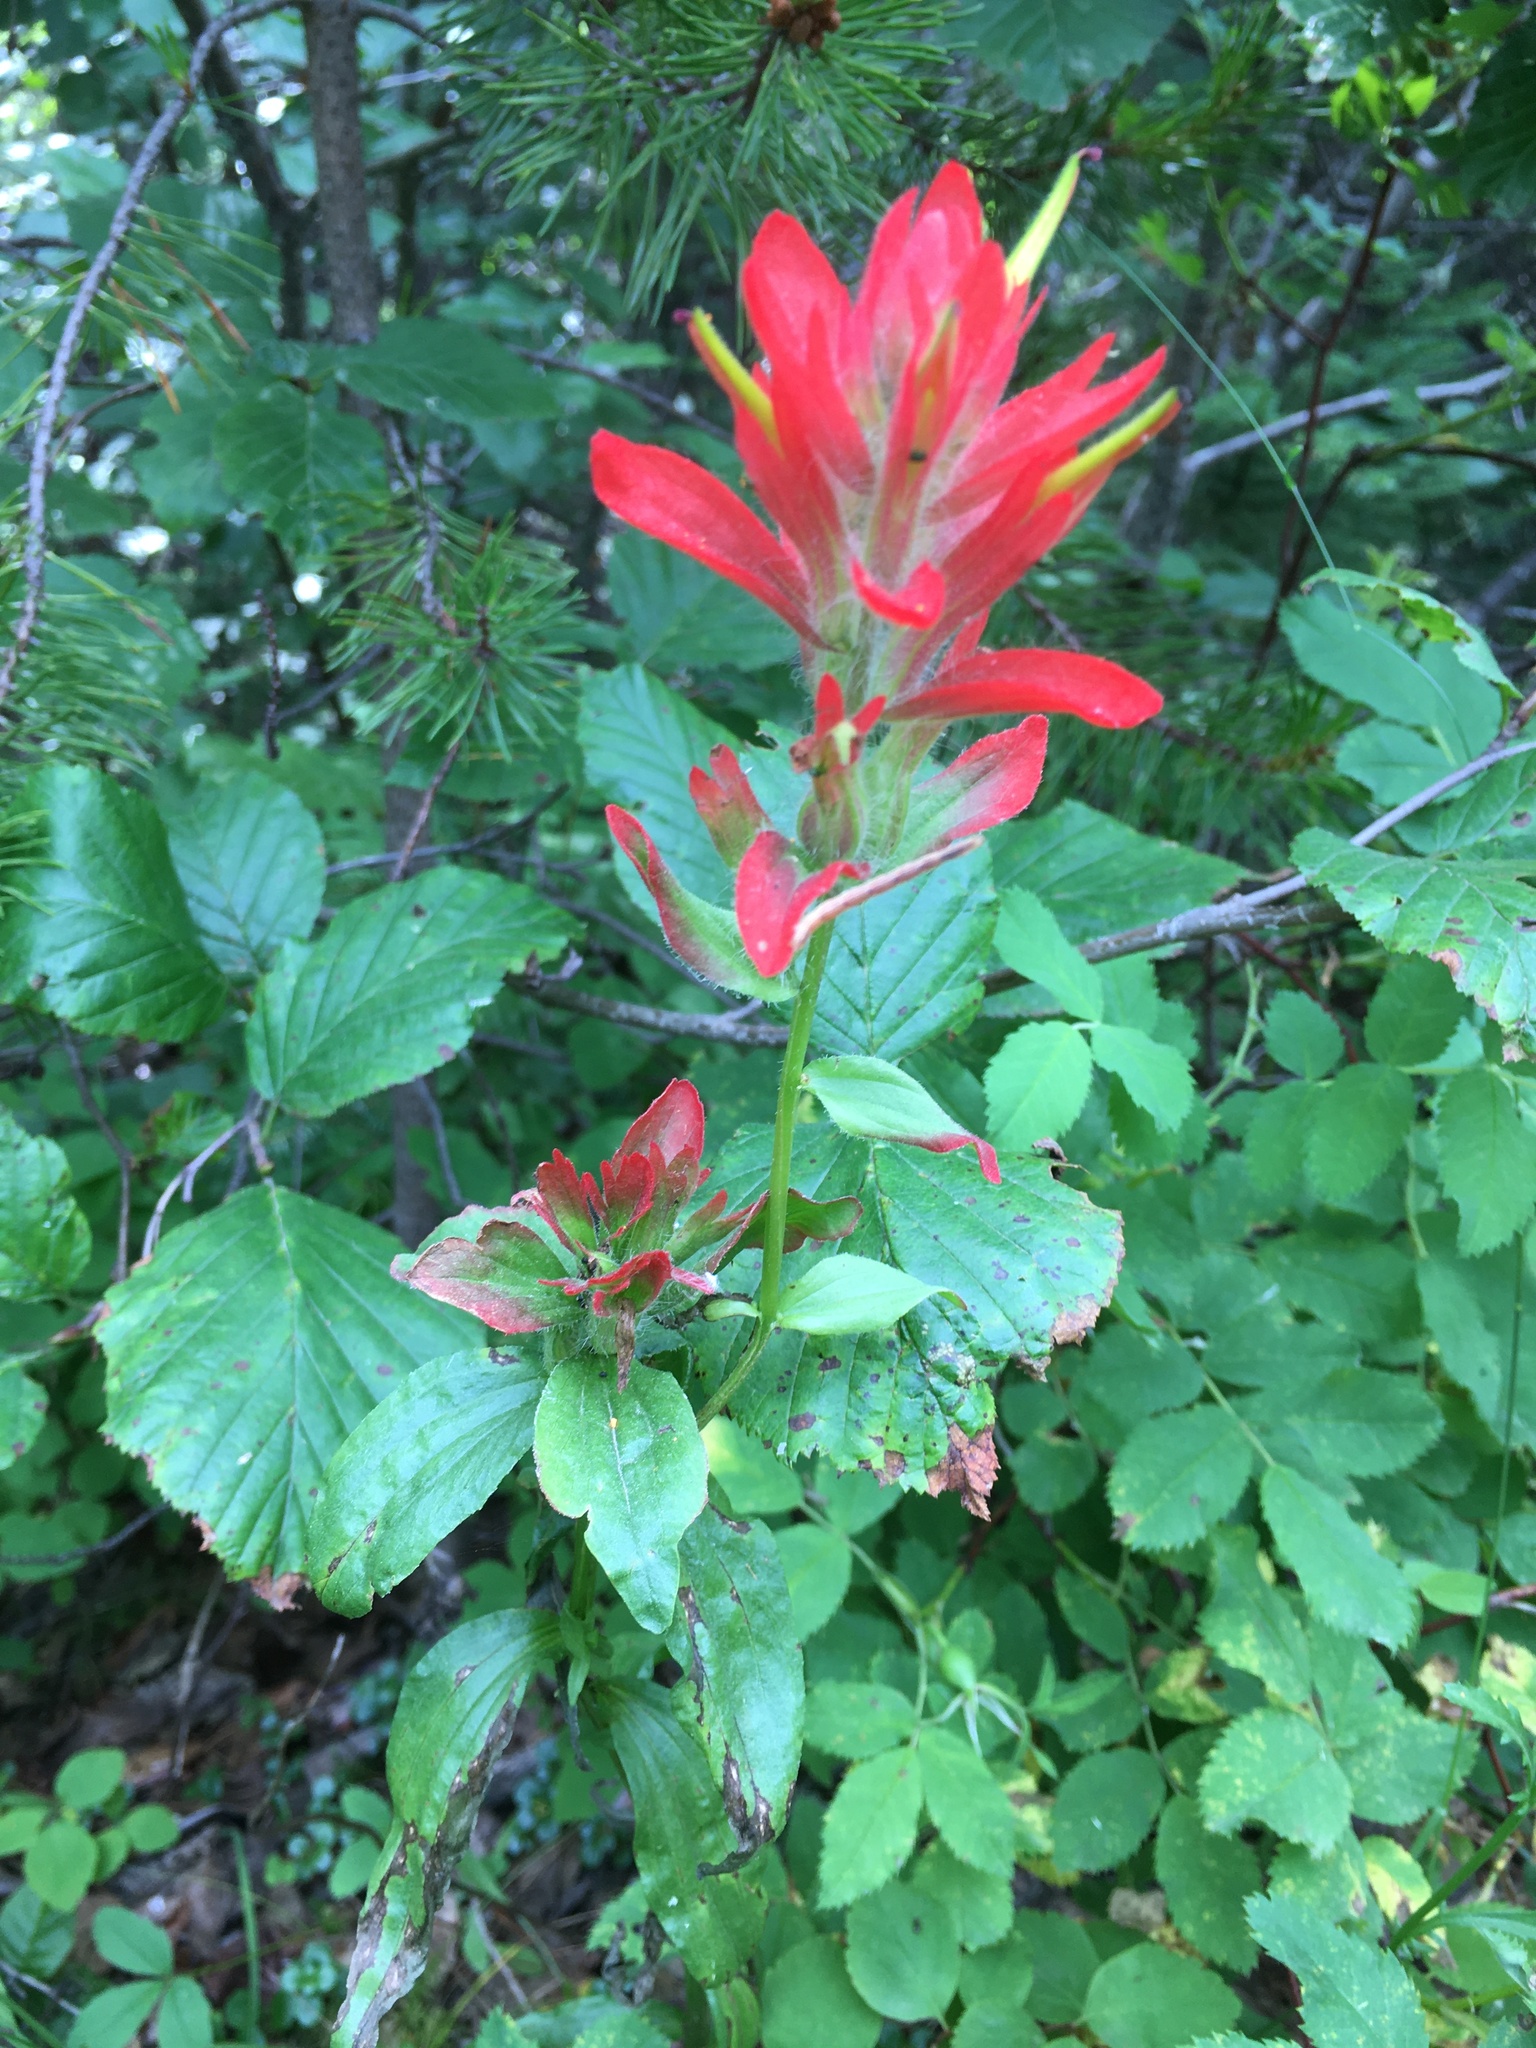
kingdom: Plantae
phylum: Tracheophyta
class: Magnoliopsida
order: Lamiales
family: Orobanchaceae
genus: Castilleja
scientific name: Castilleja miniata
